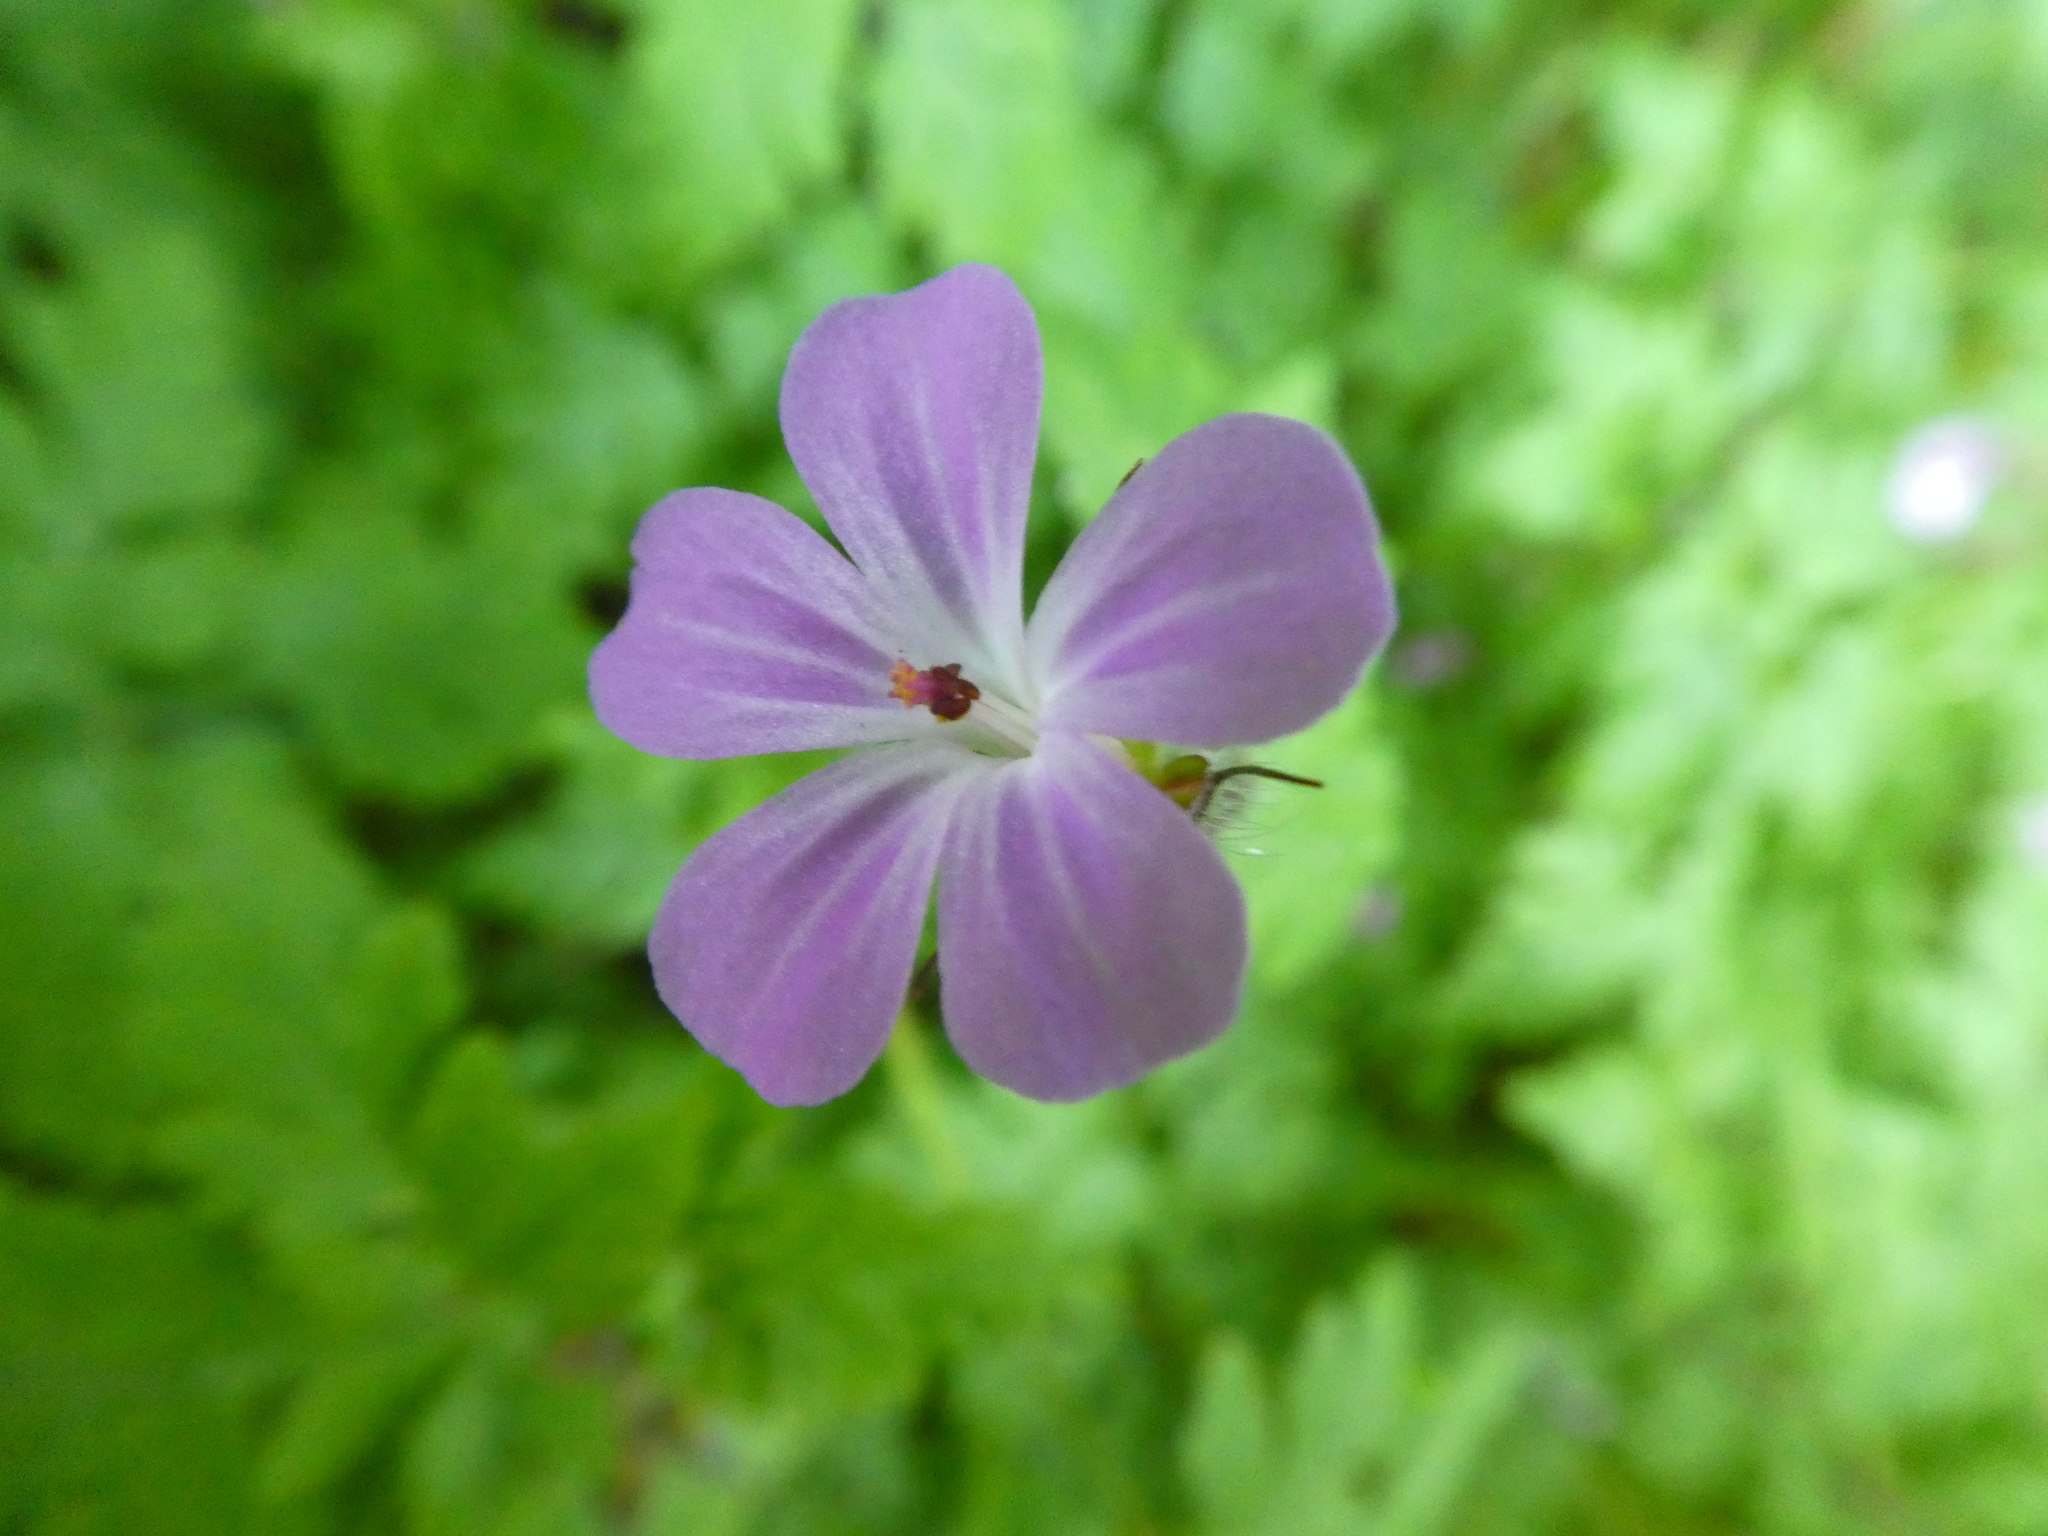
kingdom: Plantae
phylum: Tracheophyta
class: Magnoliopsida
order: Geraniales
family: Geraniaceae
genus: Geranium
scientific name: Geranium robertianum
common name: Herb-robert
